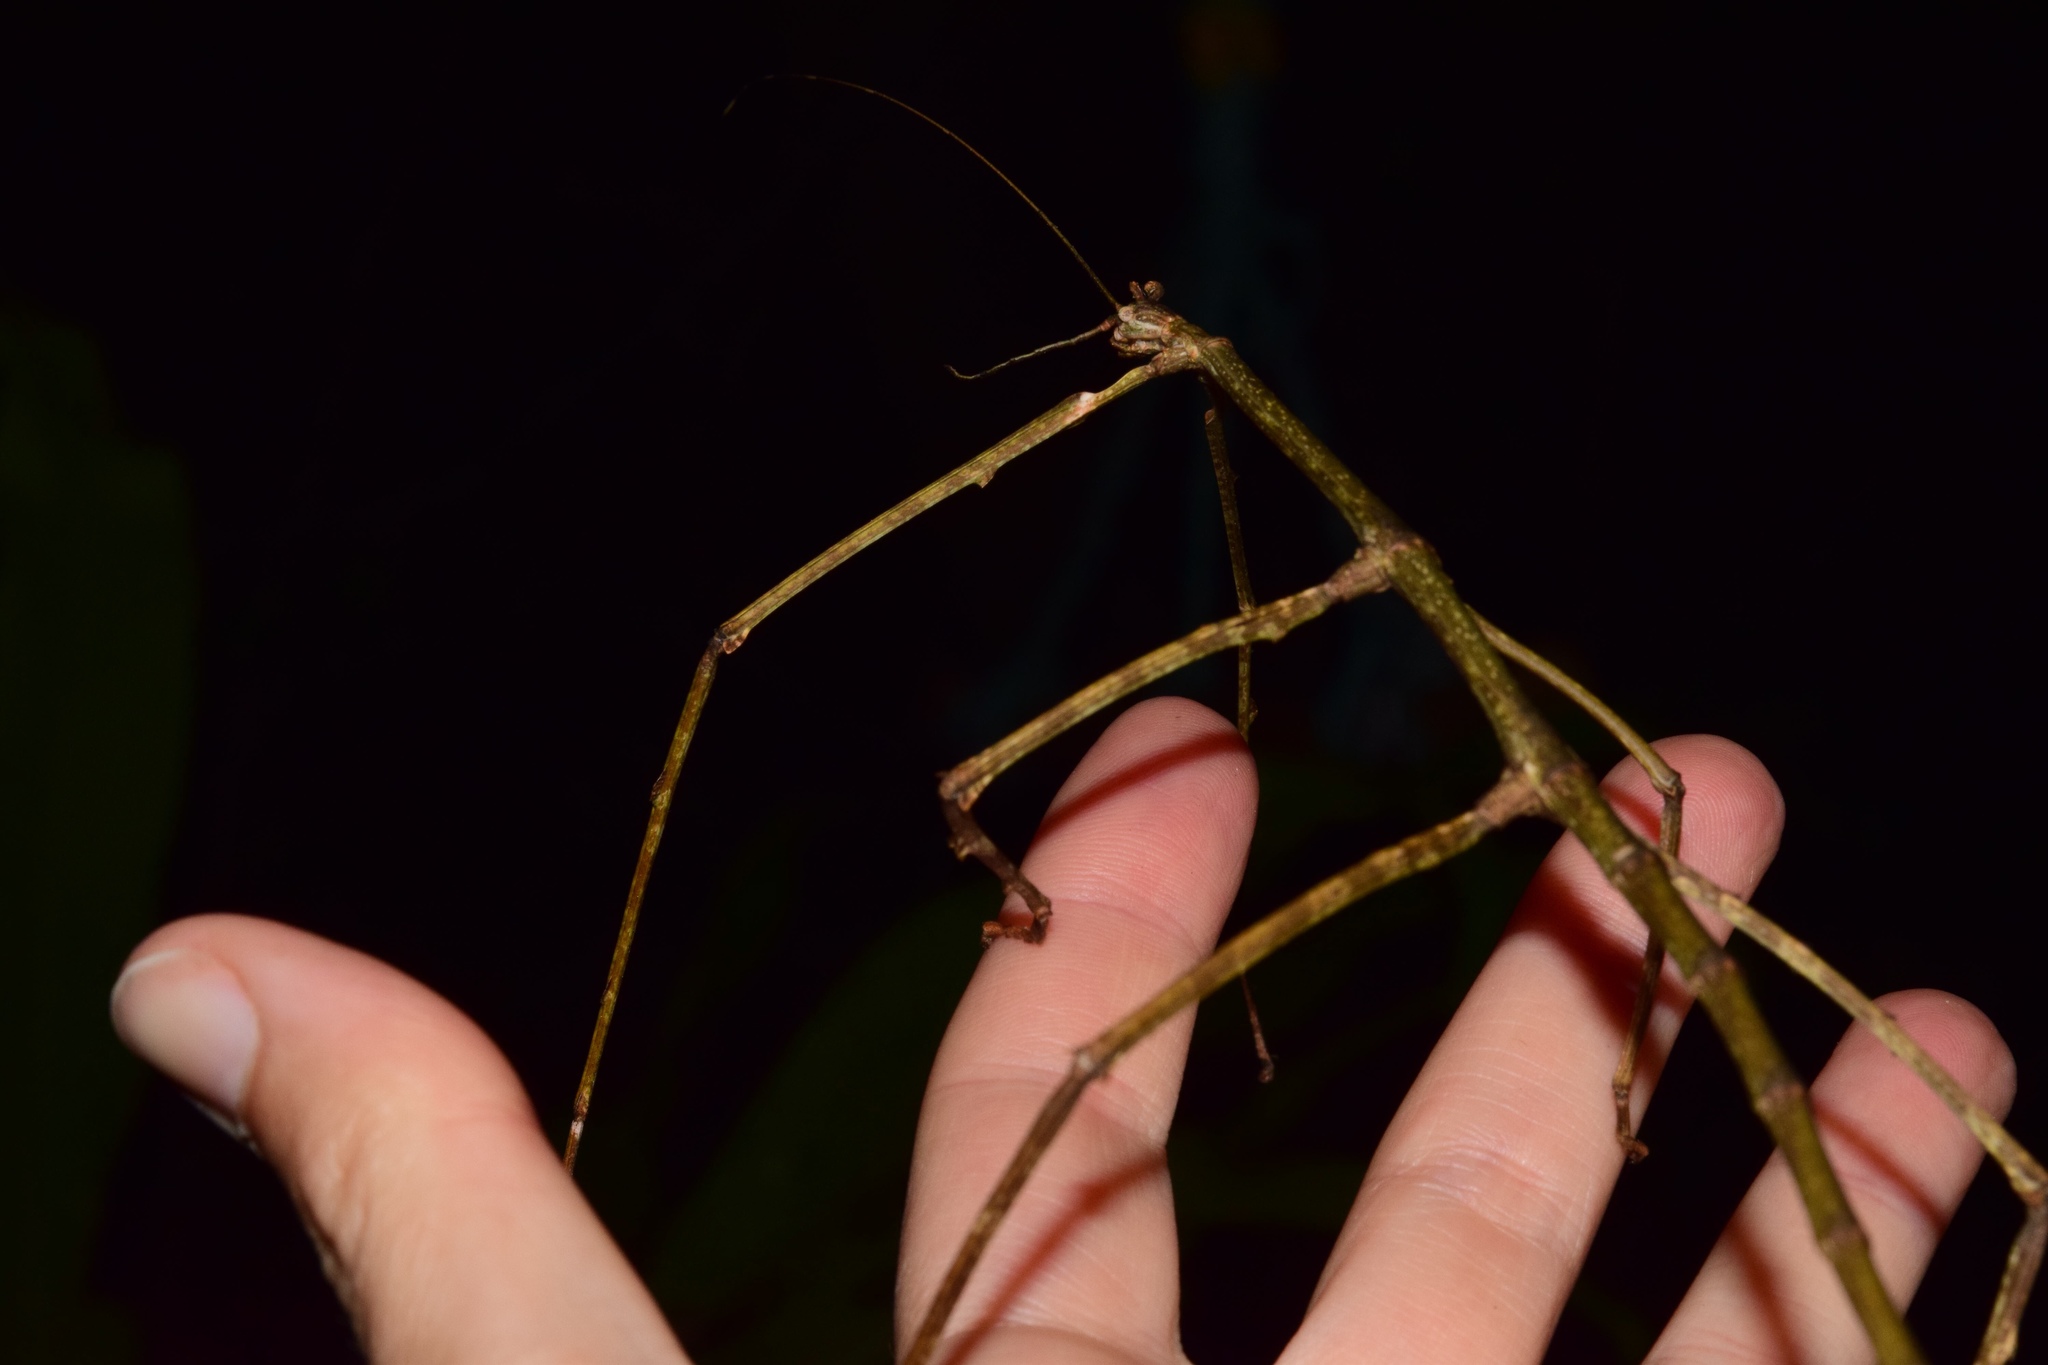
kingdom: Animalia
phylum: Arthropoda
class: Insecta
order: Phasmida
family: Diapheromeridae
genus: Bactricia
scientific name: Bactricia bituberculata
